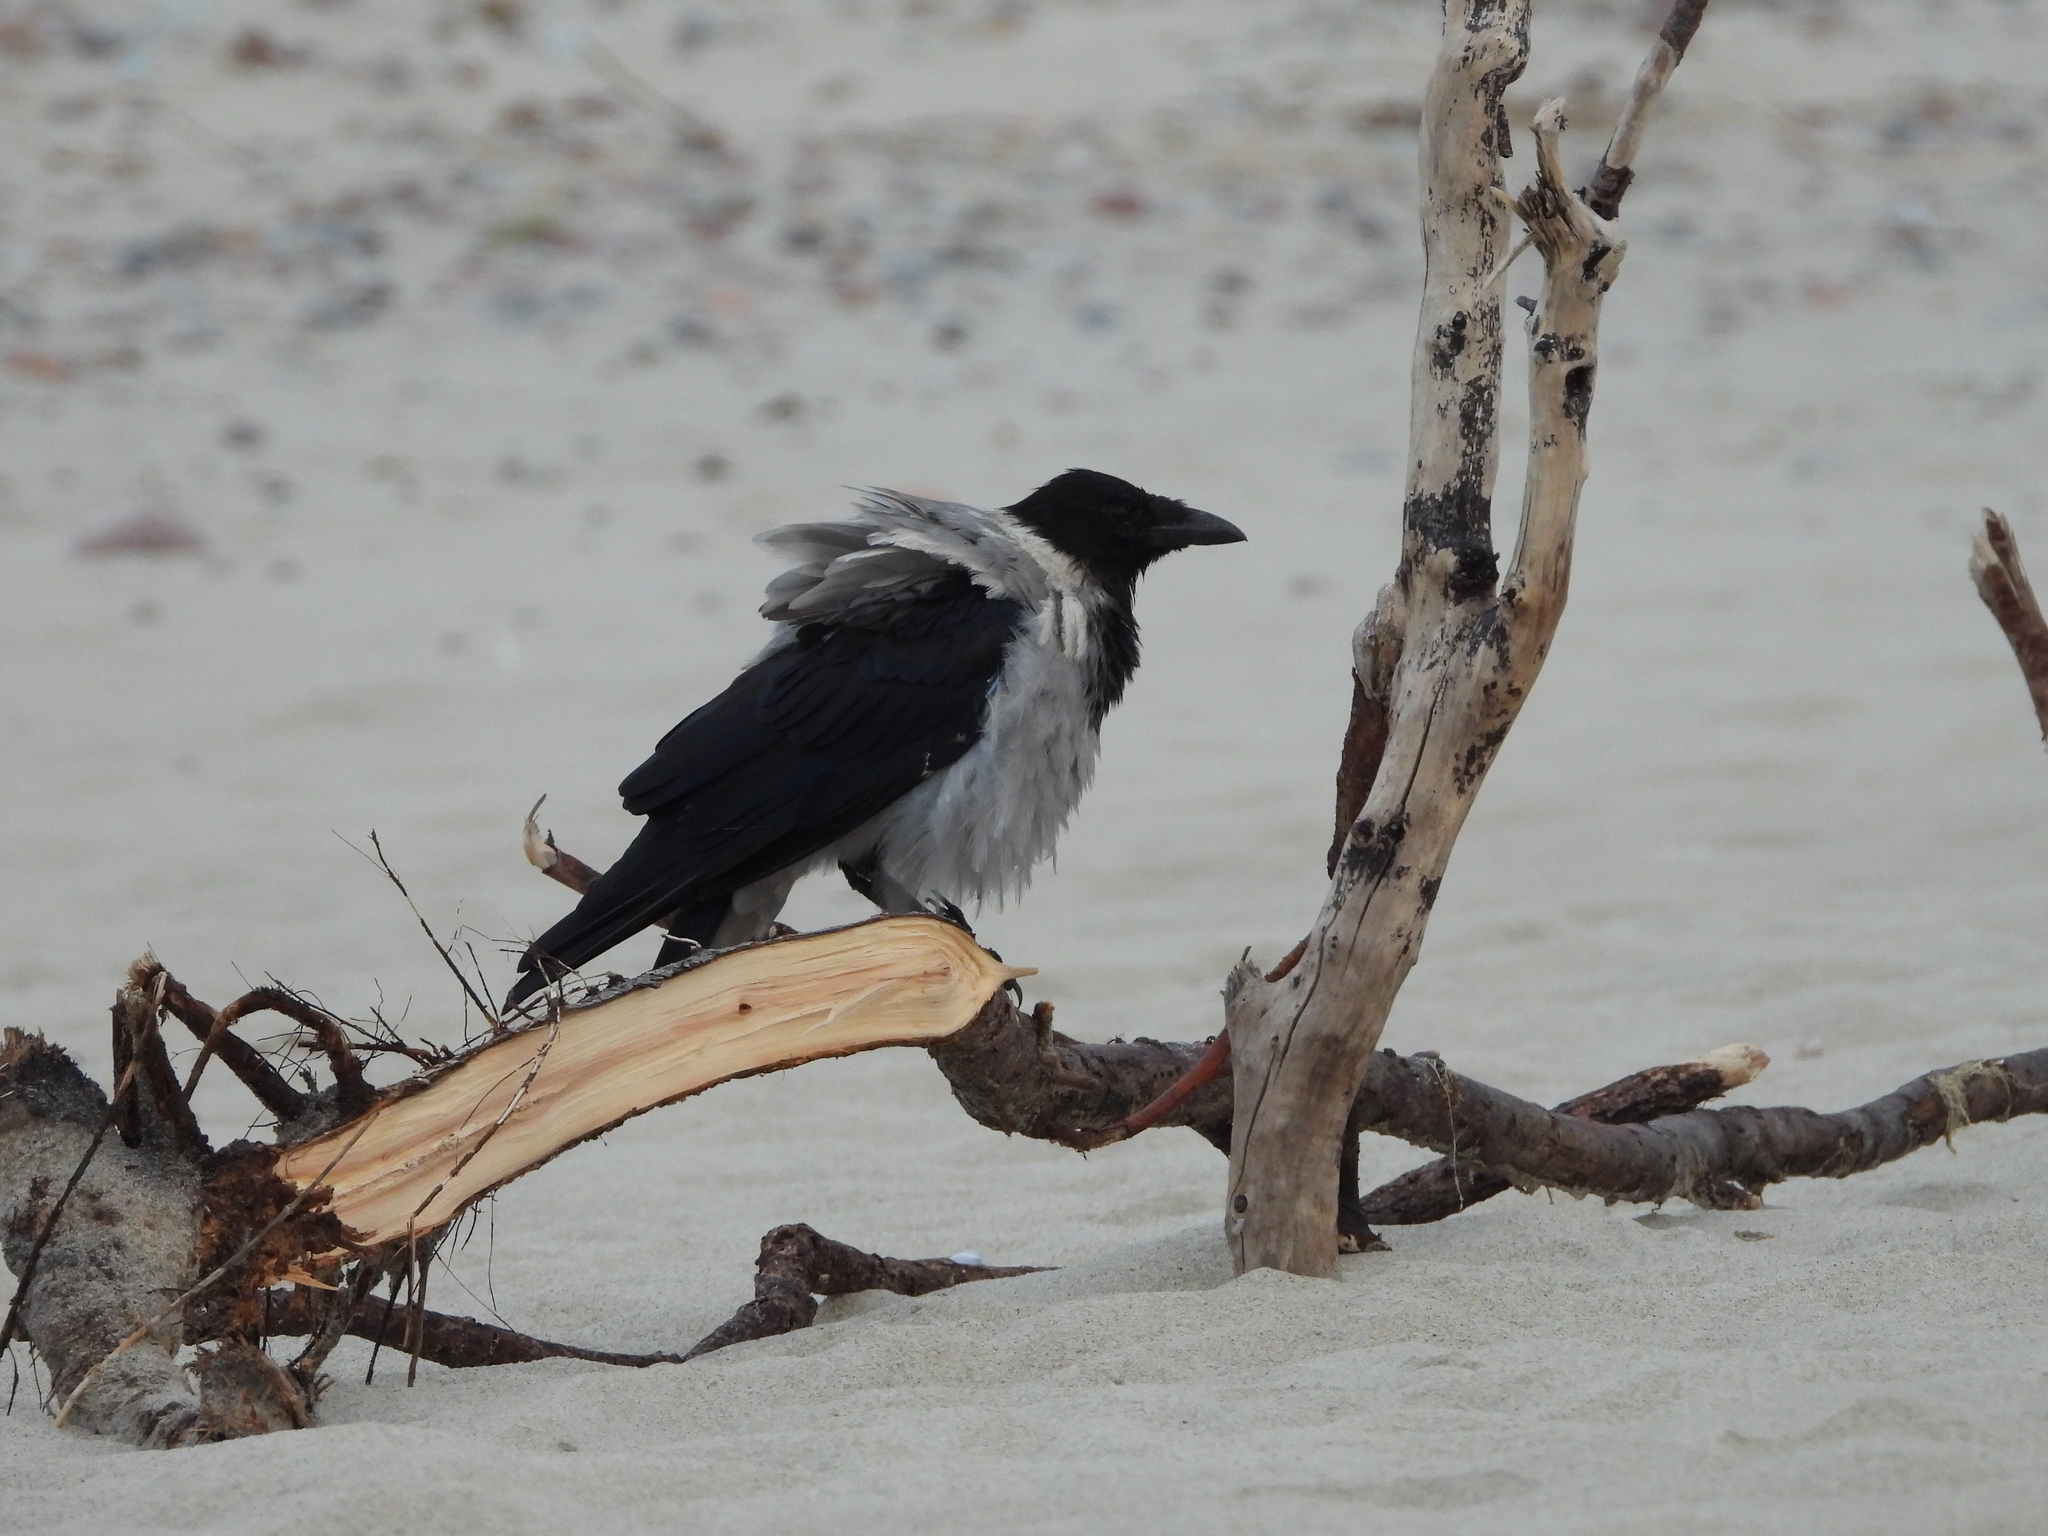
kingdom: Animalia
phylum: Chordata
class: Aves
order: Passeriformes
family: Corvidae
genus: Corvus
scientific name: Corvus cornix
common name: Hooded crow
